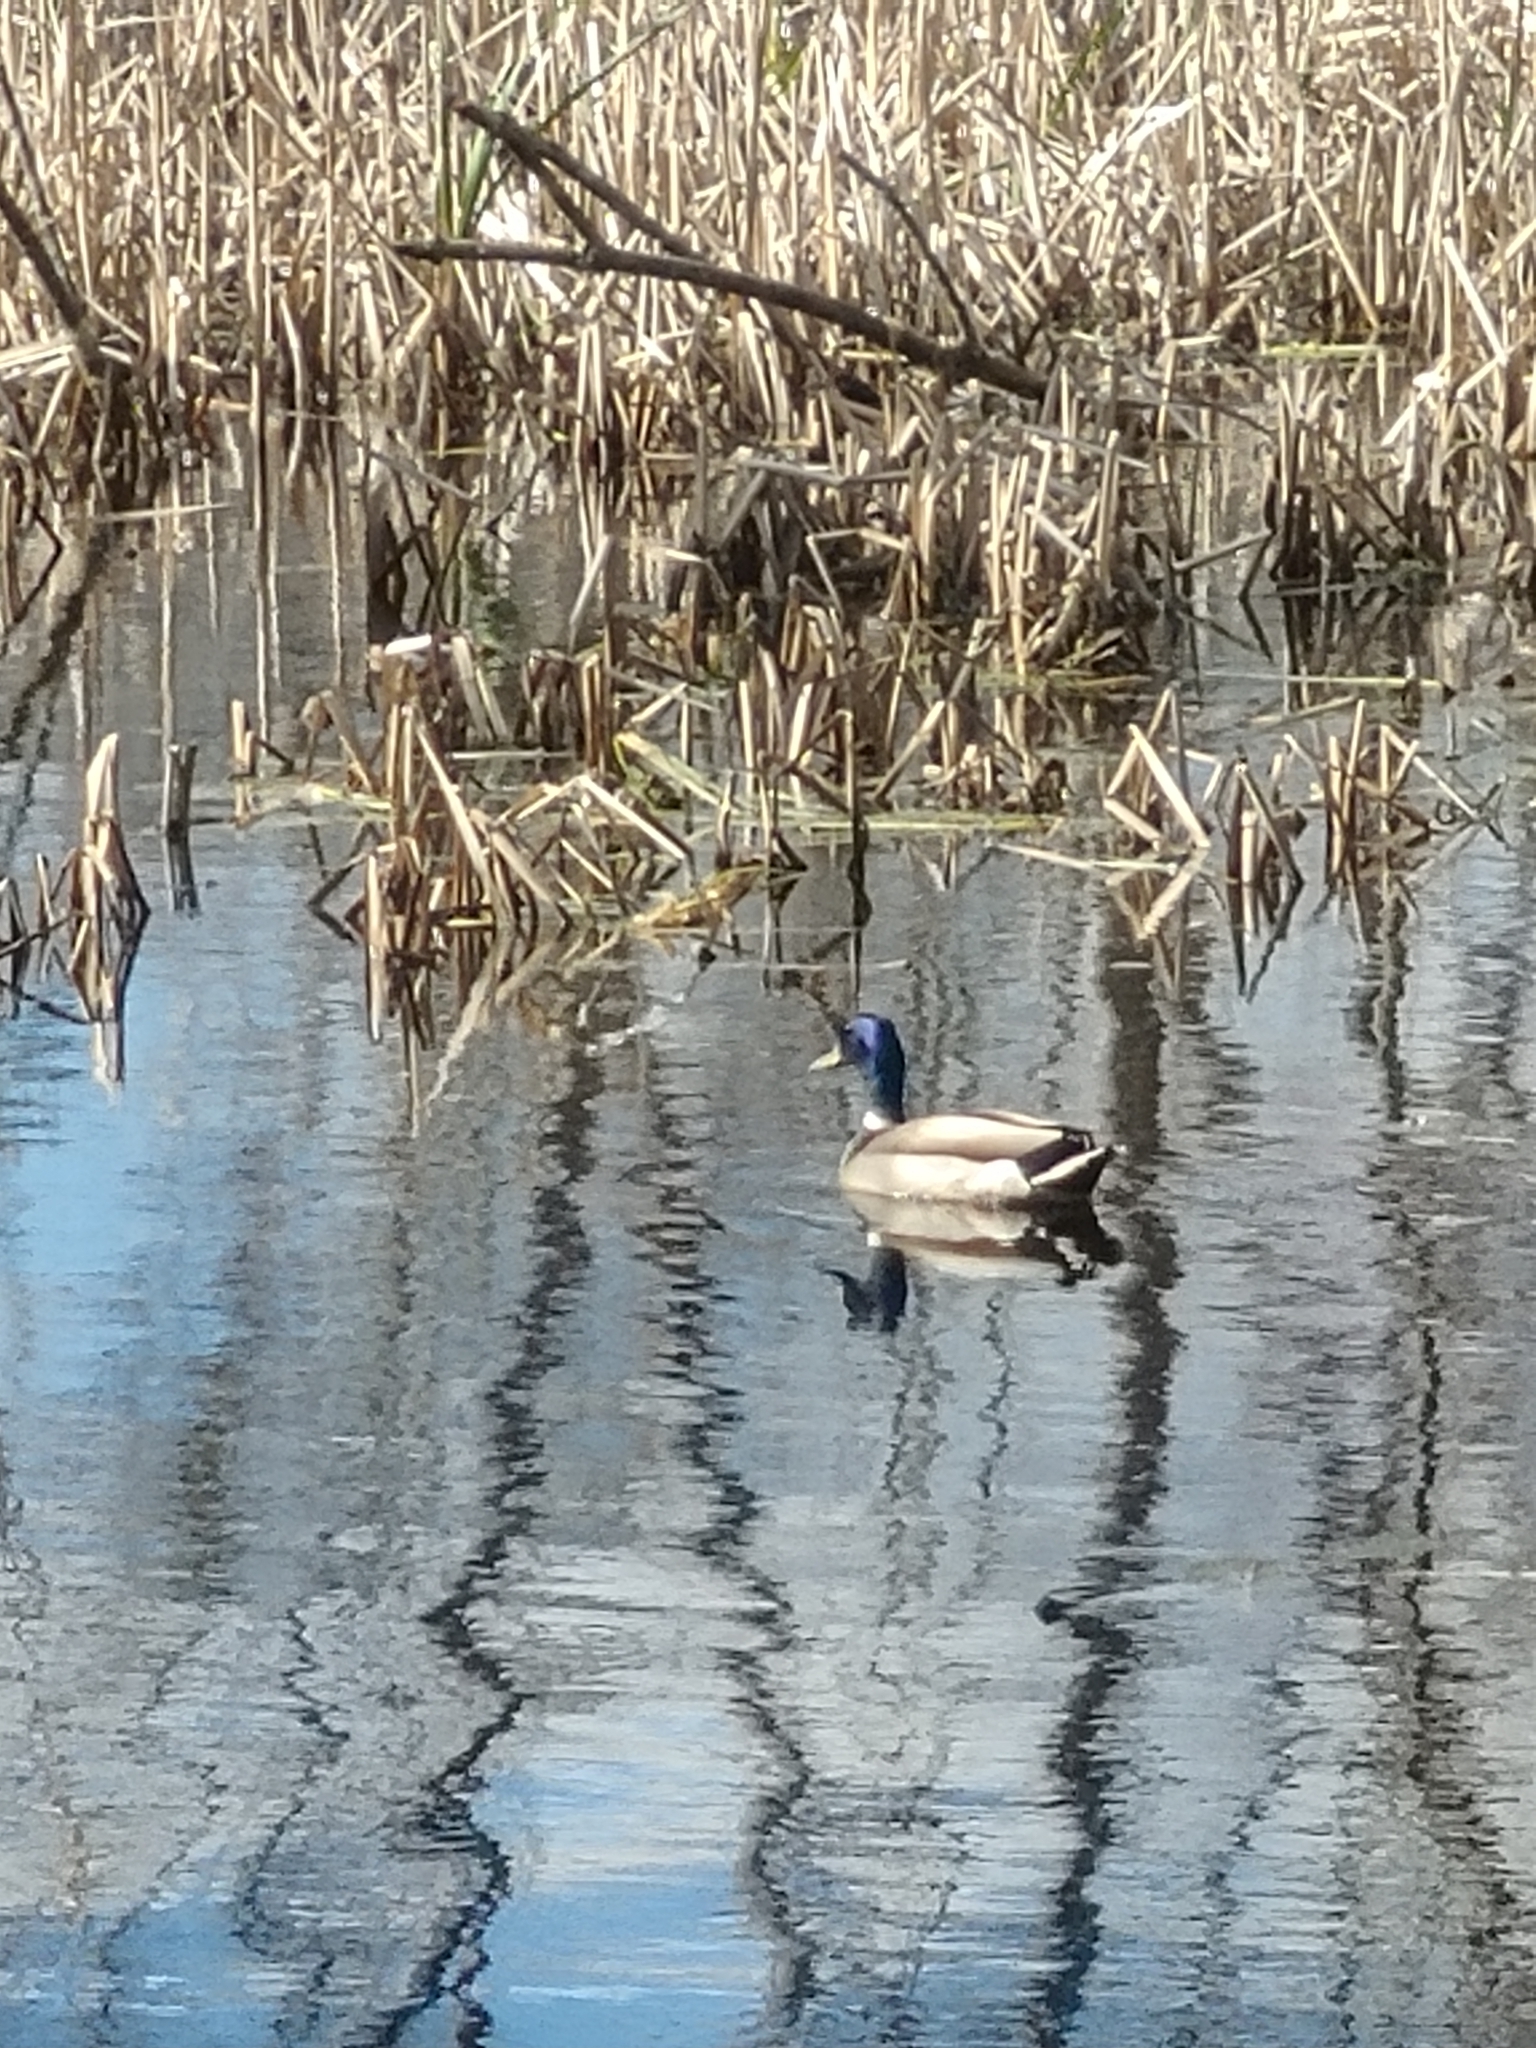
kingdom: Animalia
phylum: Chordata
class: Aves
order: Anseriformes
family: Anatidae
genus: Anas
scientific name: Anas platyrhynchos
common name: Mallard
